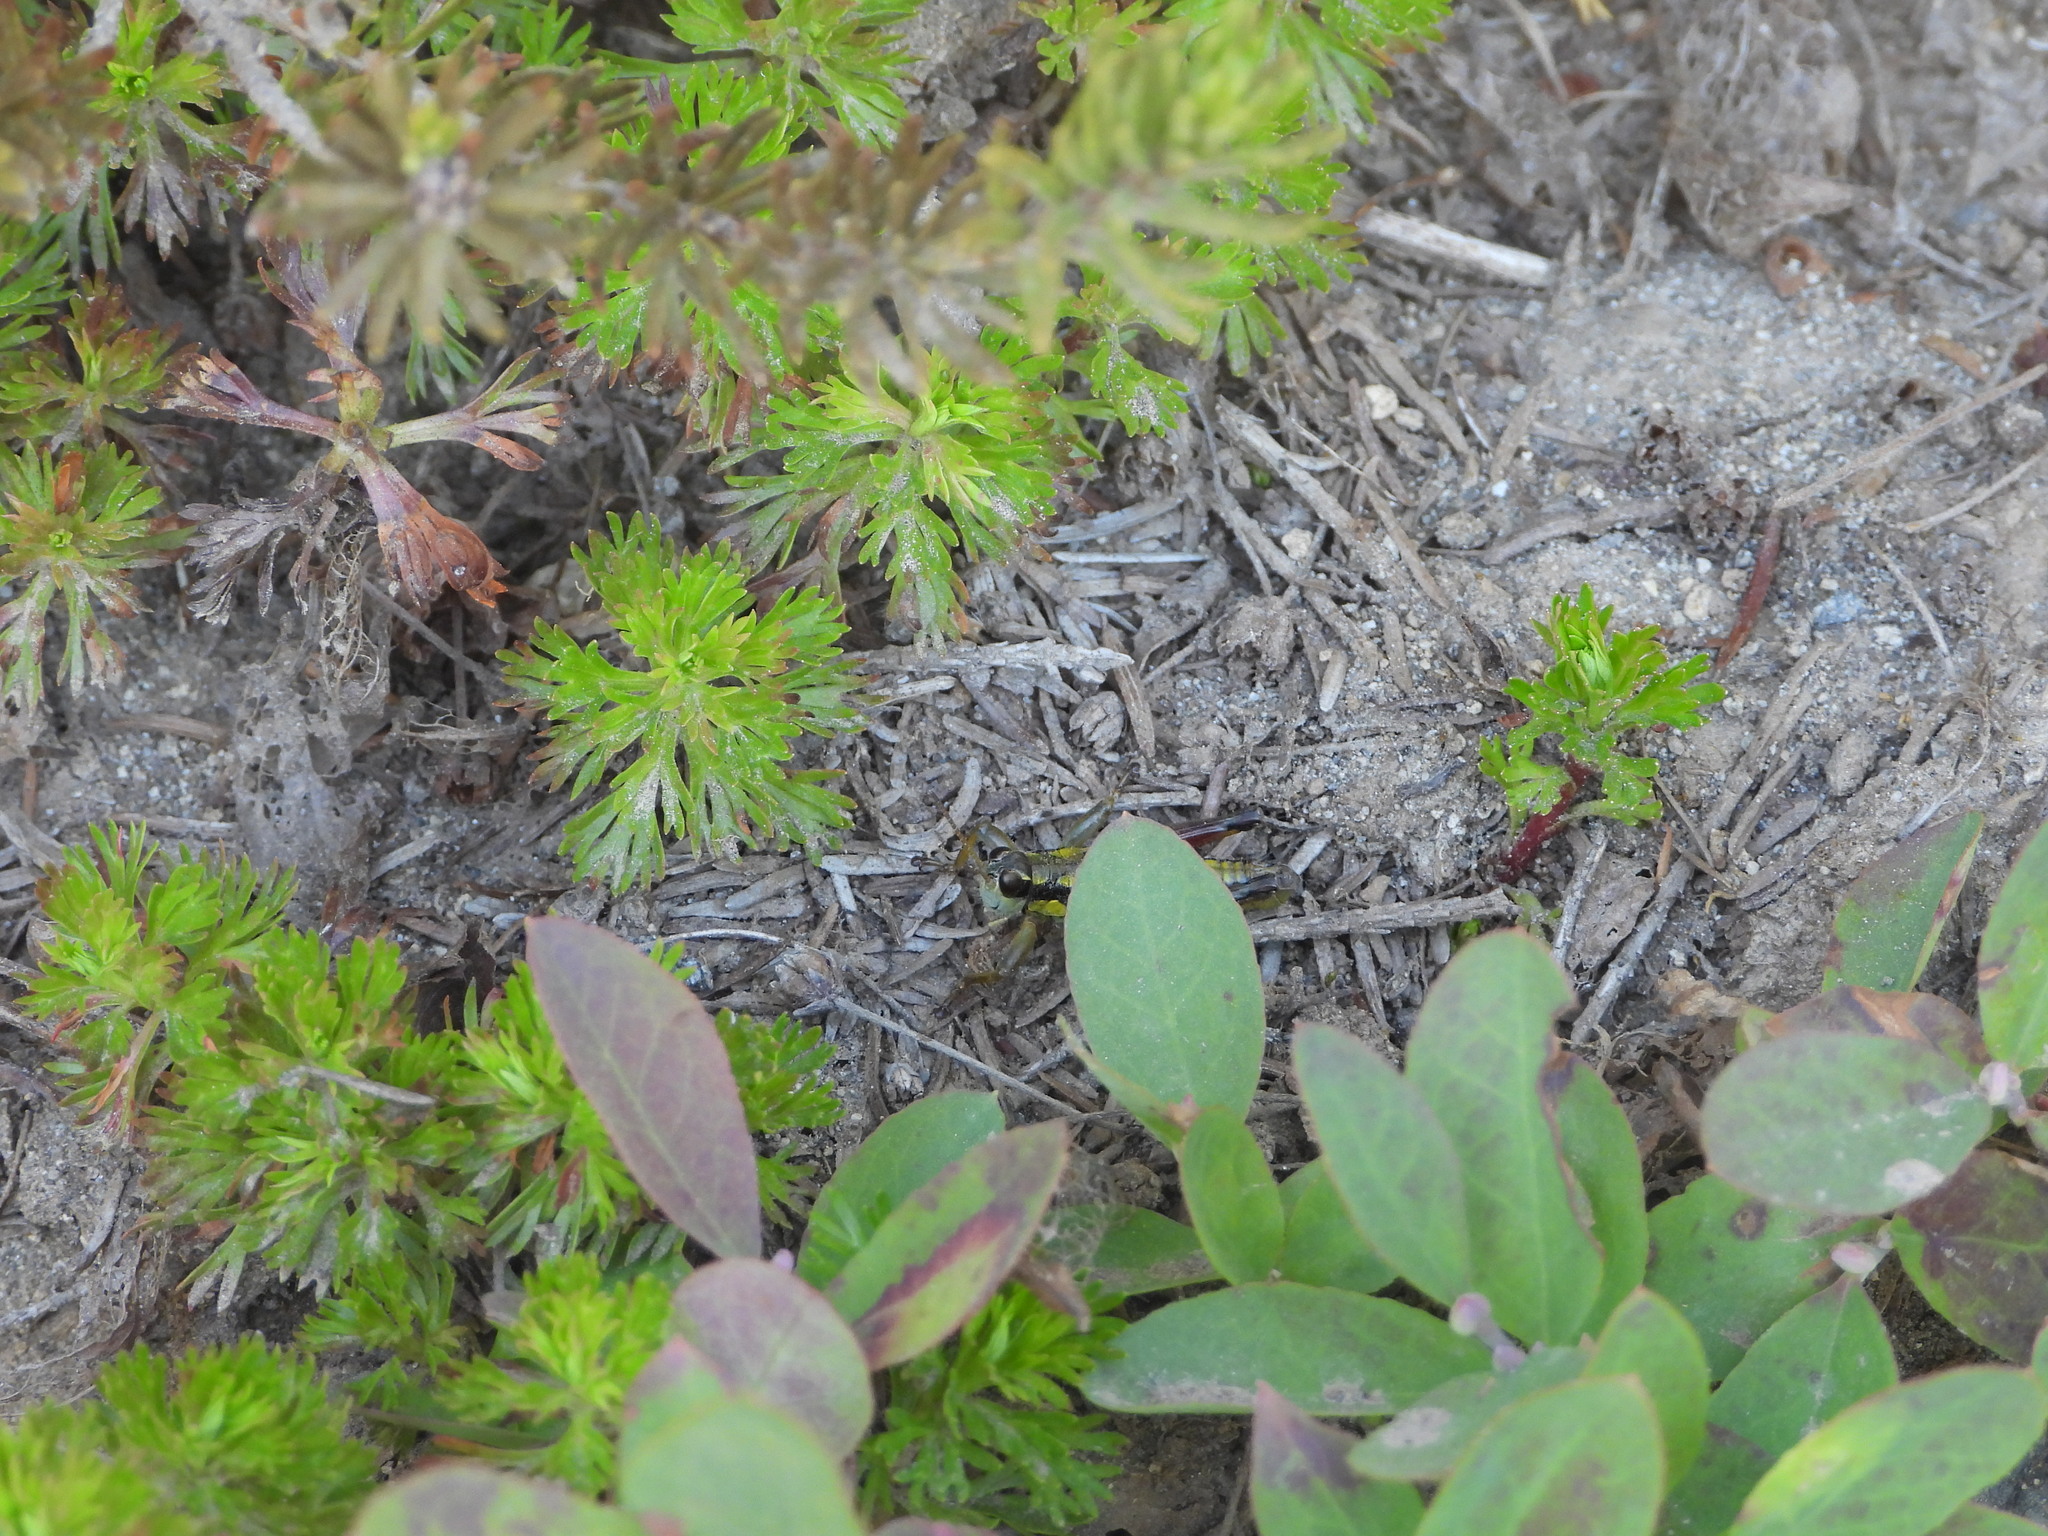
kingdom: Animalia
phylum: Arthropoda
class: Insecta
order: Orthoptera
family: Acrididae
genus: Prumnacris
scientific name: Prumnacris rainierensis
